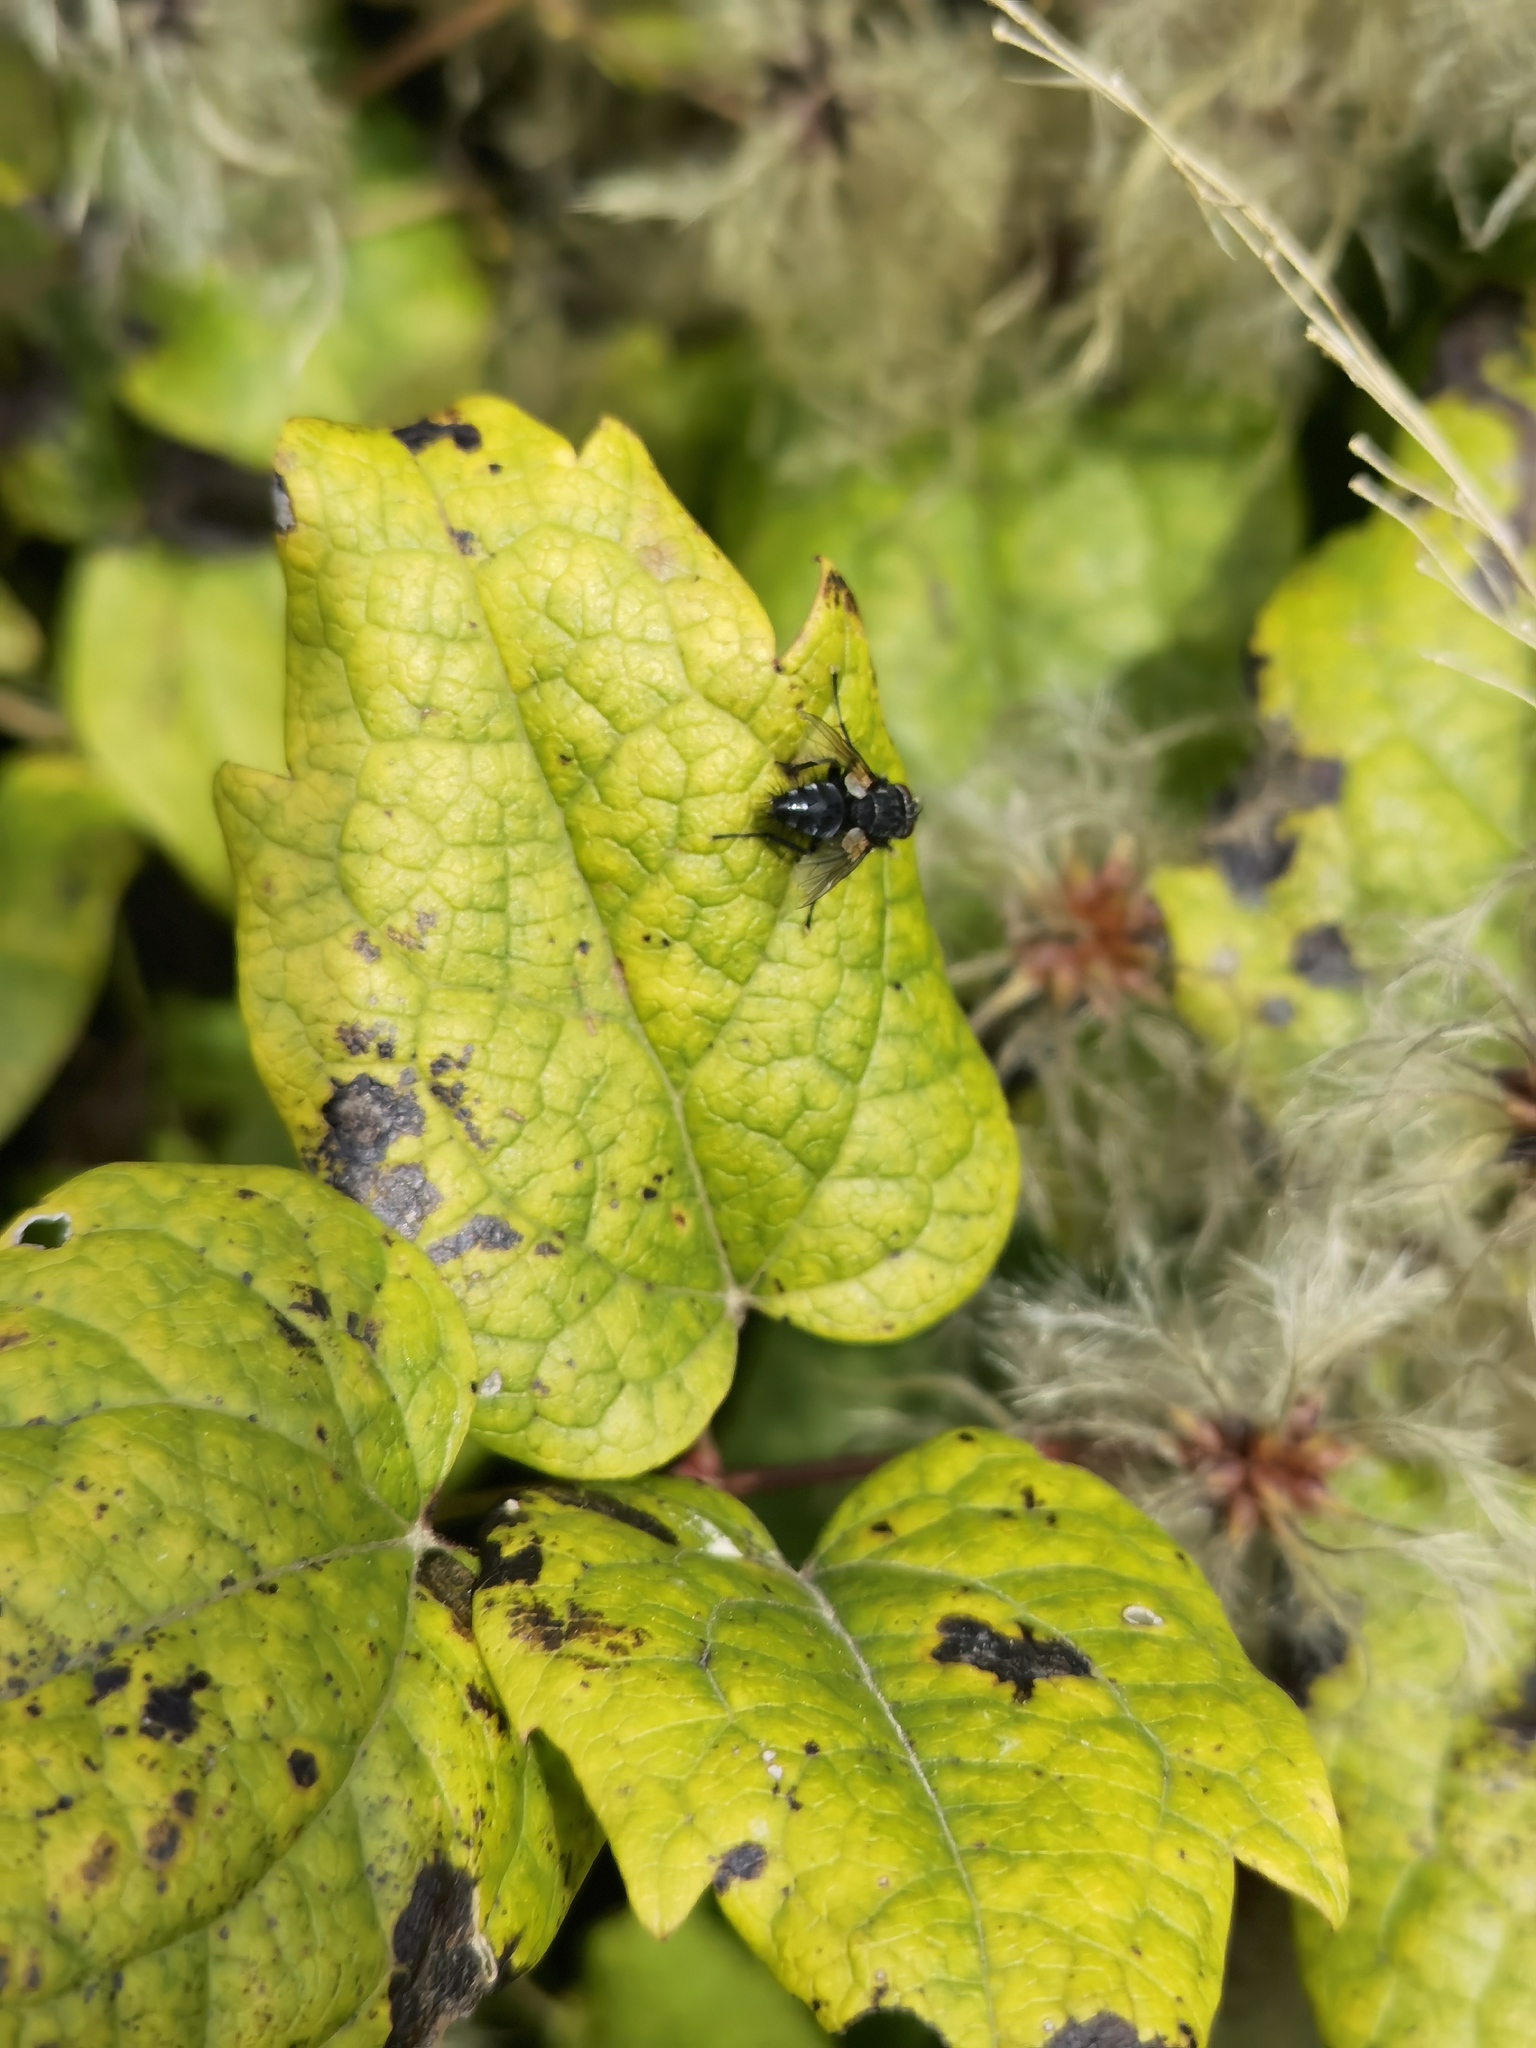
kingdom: Animalia
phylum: Arthropoda
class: Insecta
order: Diptera
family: Tachinidae
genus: Voria
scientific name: Voria ruralis
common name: Parasitic fly
